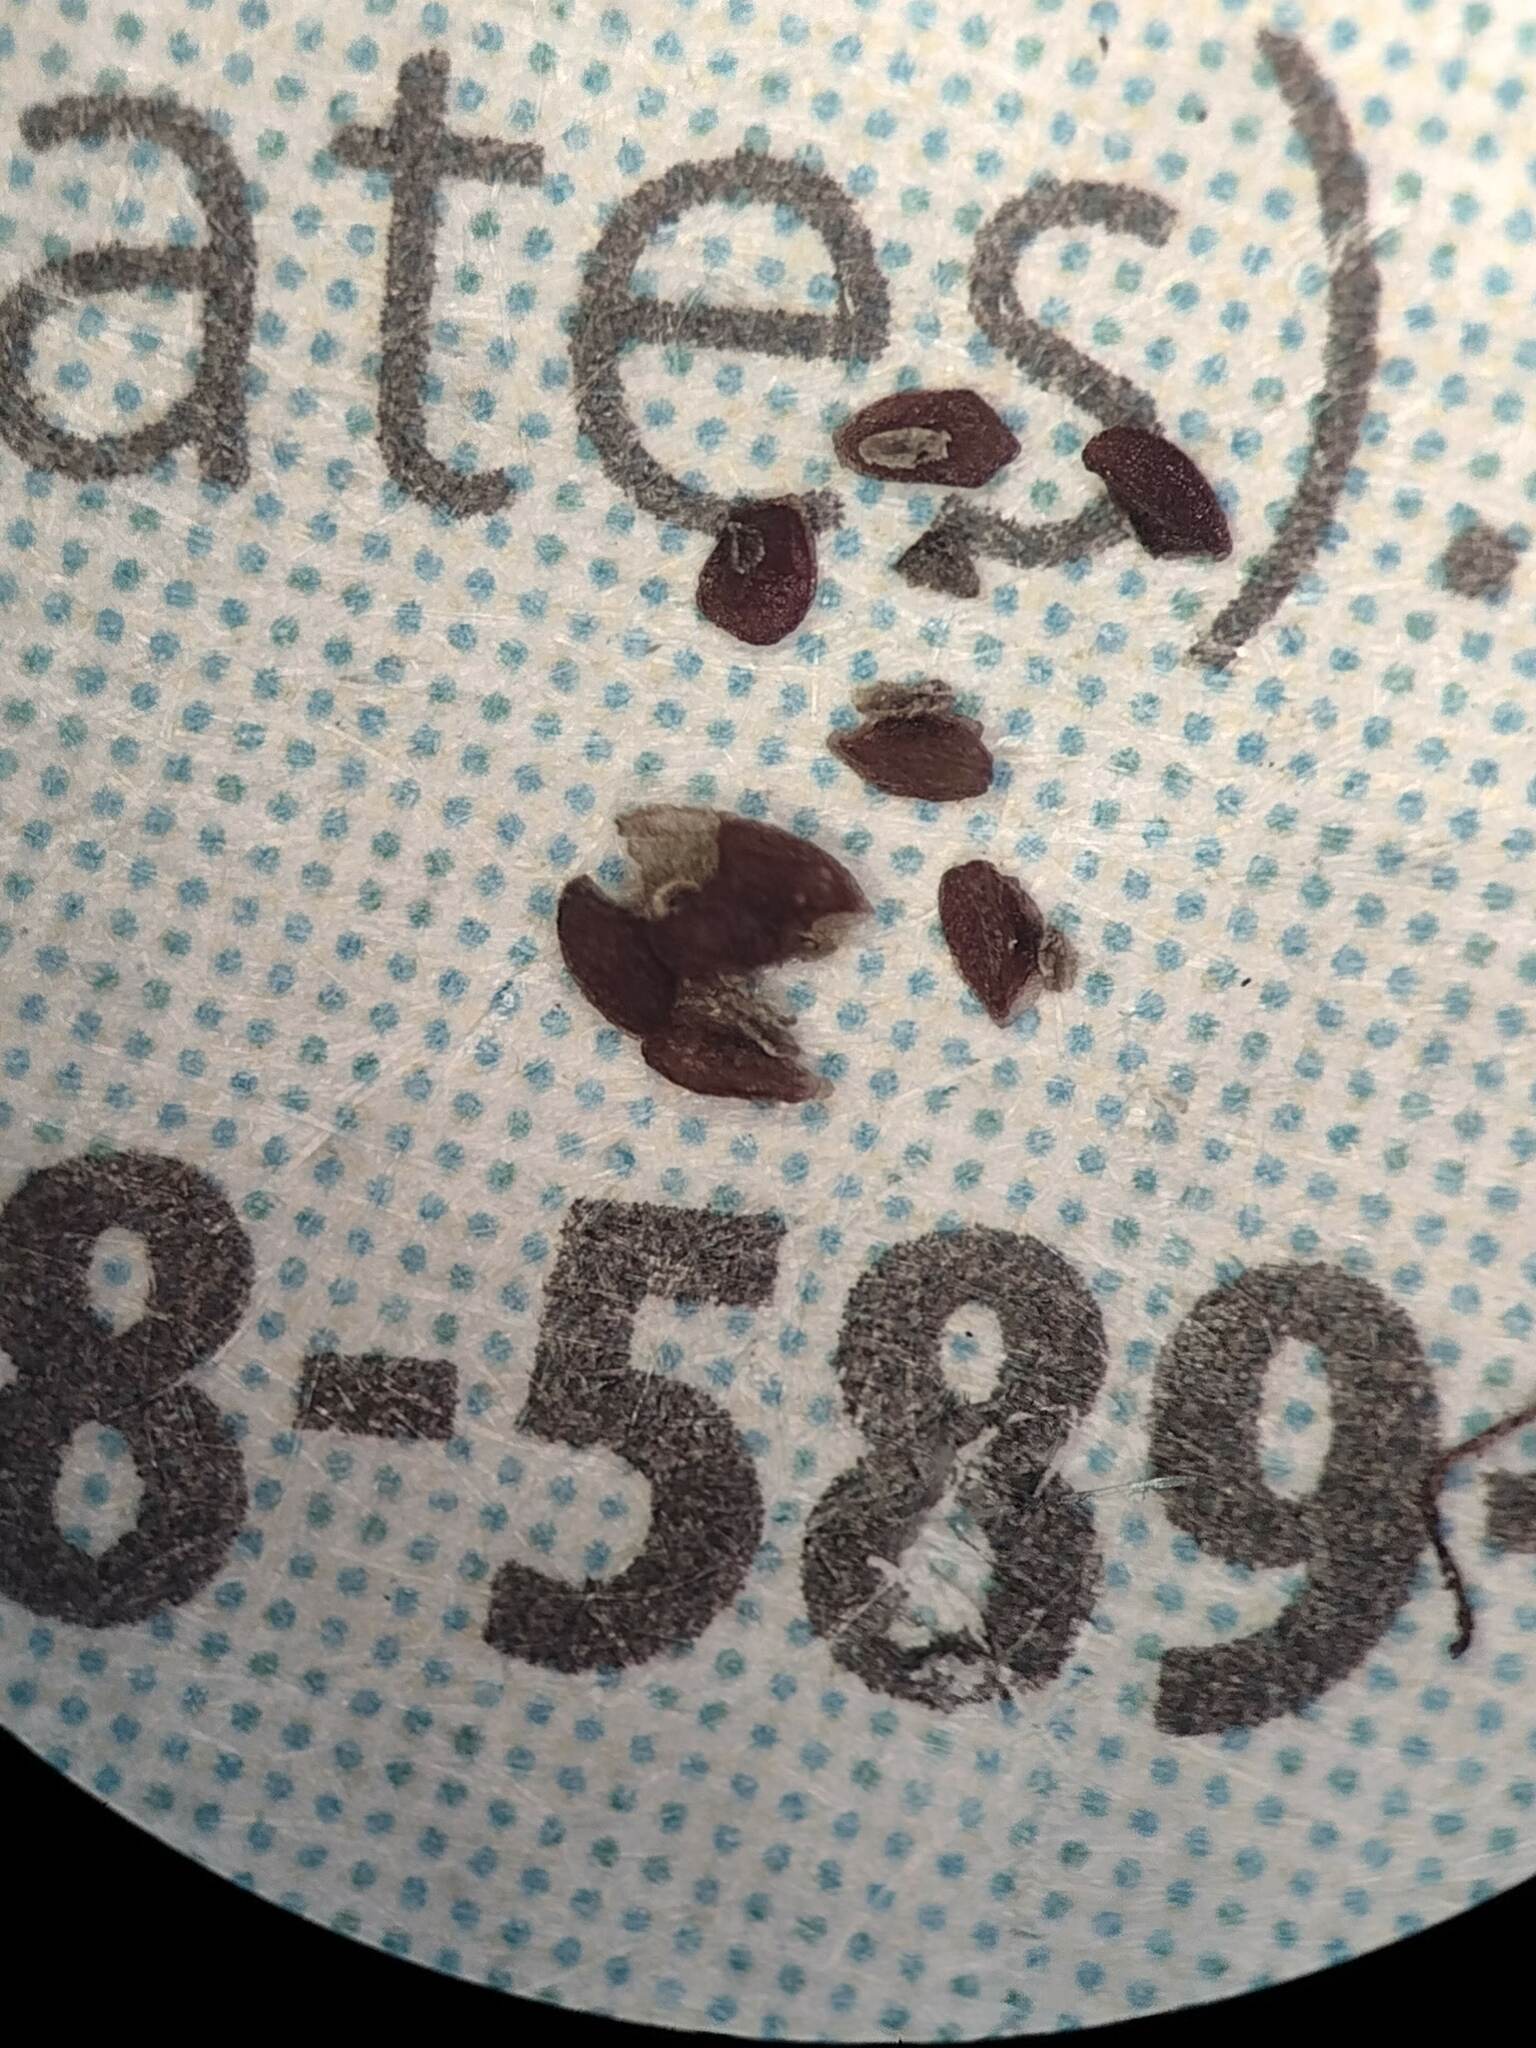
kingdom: Plantae
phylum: Tracheophyta
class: Magnoliopsida
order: Lamiales
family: Plantaginaceae
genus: Plantago
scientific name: Plantago major
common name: Common plantain
